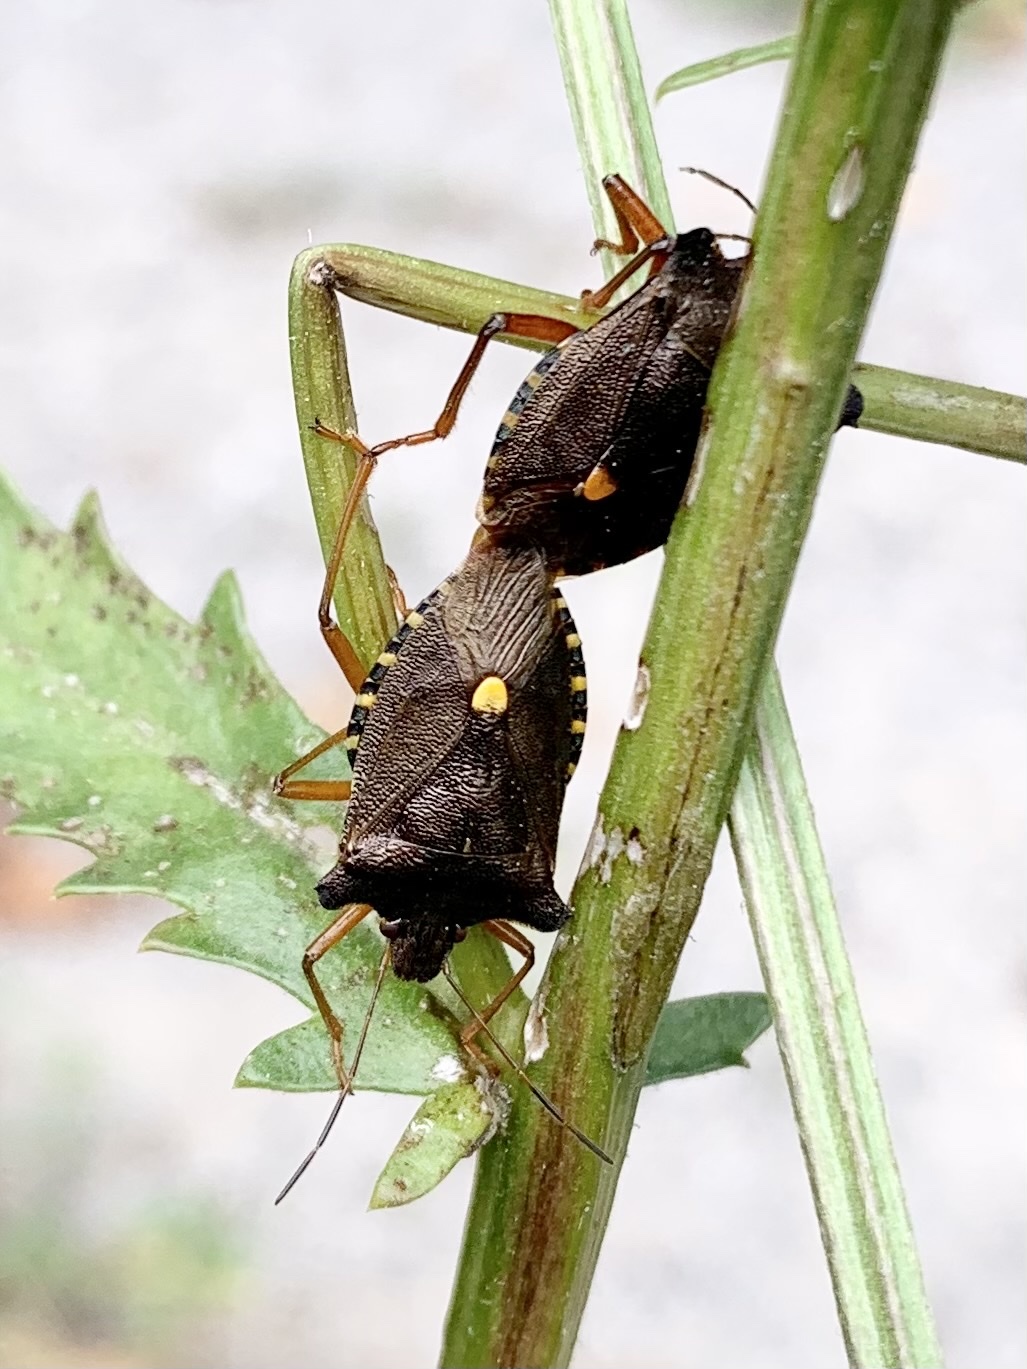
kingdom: Animalia
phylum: Arthropoda
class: Insecta
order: Hemiptera
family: Pentatomidae
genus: Pentatoma
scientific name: Pentatoma rufipes
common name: Forest bug
